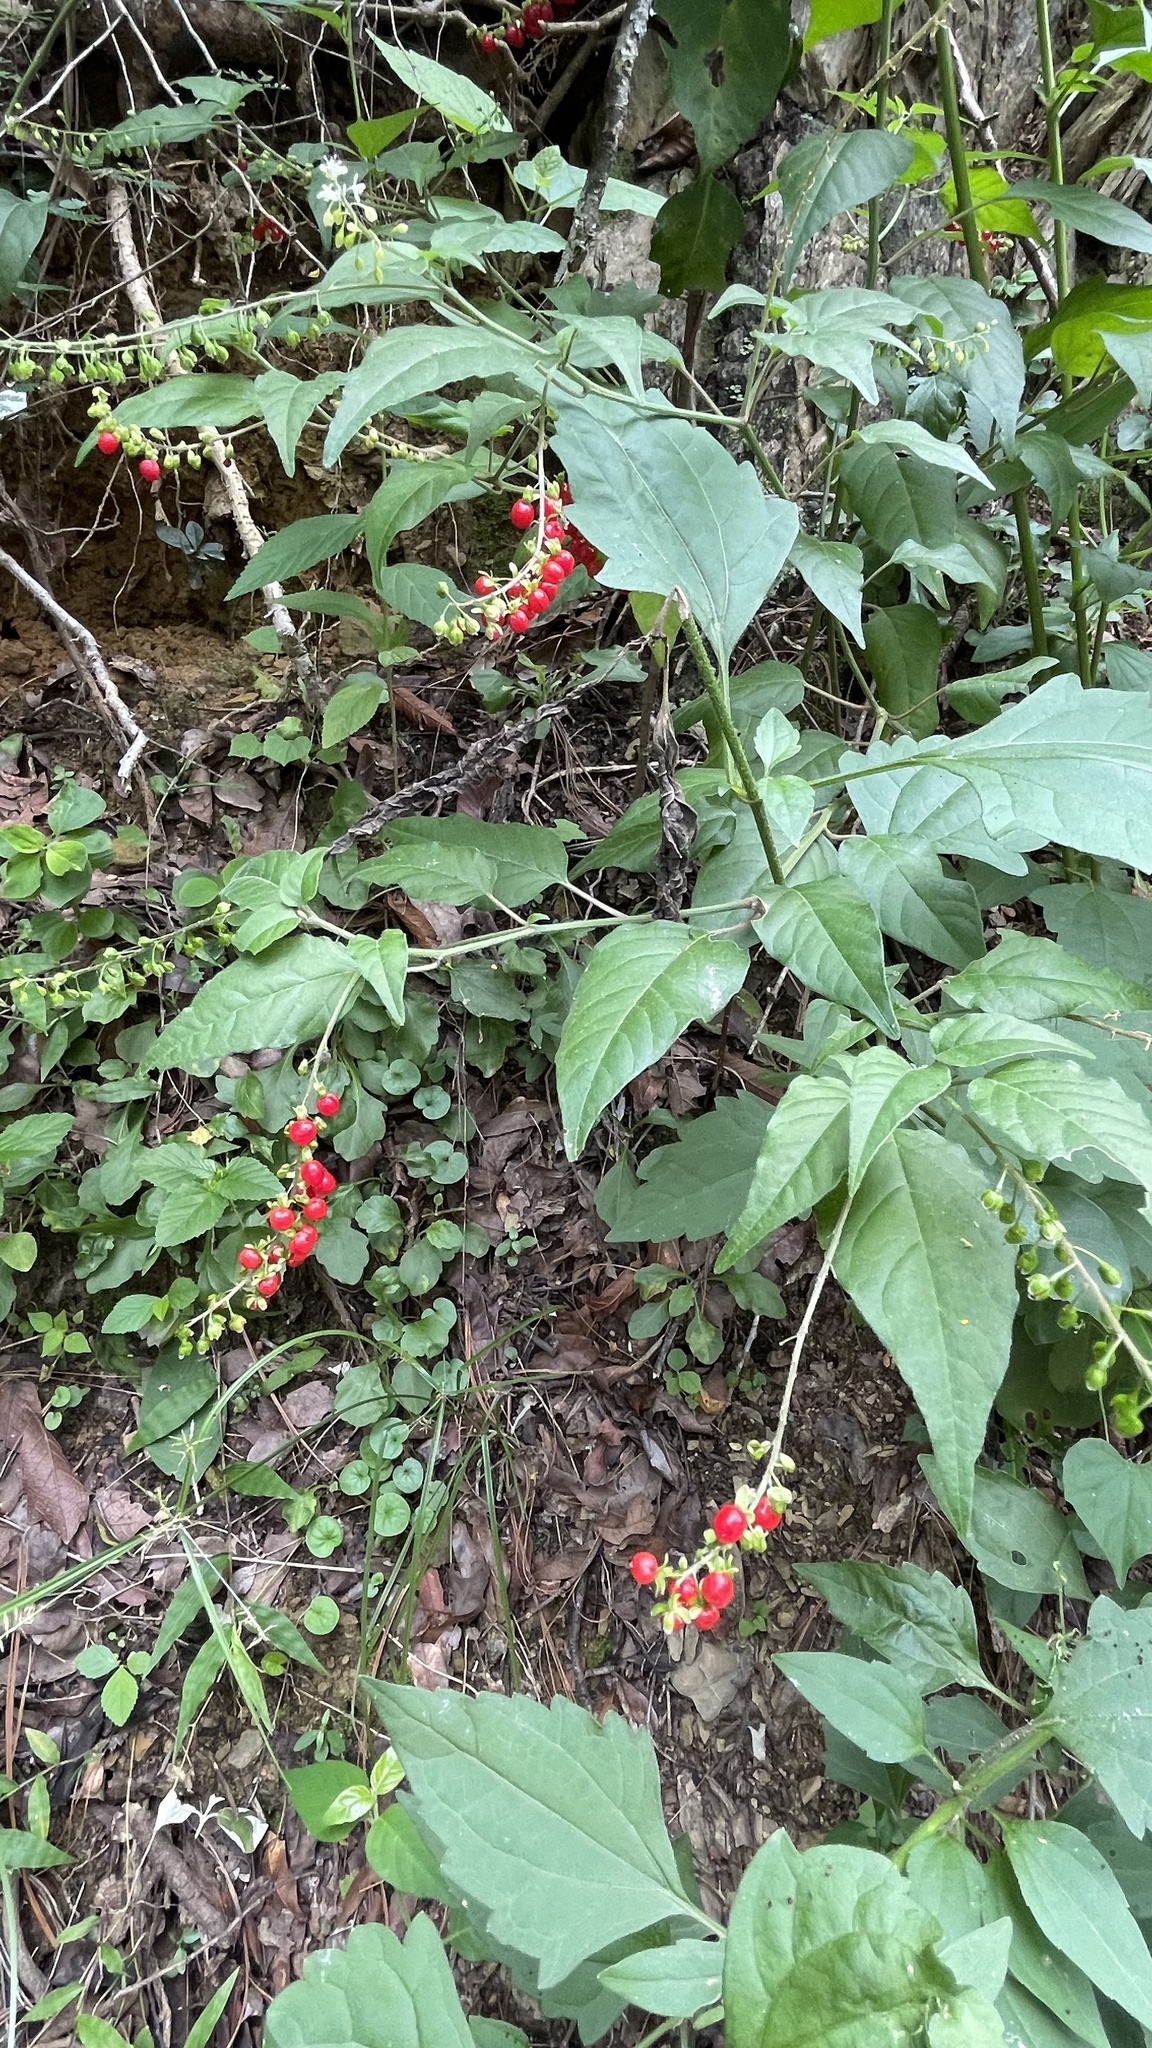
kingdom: Plantae
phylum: Tracheophyta
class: Magnoliopsida
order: Caryophyllales
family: Phytolaccaceae
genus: Rivina
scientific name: Rivina humilis
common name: Rougeplant
